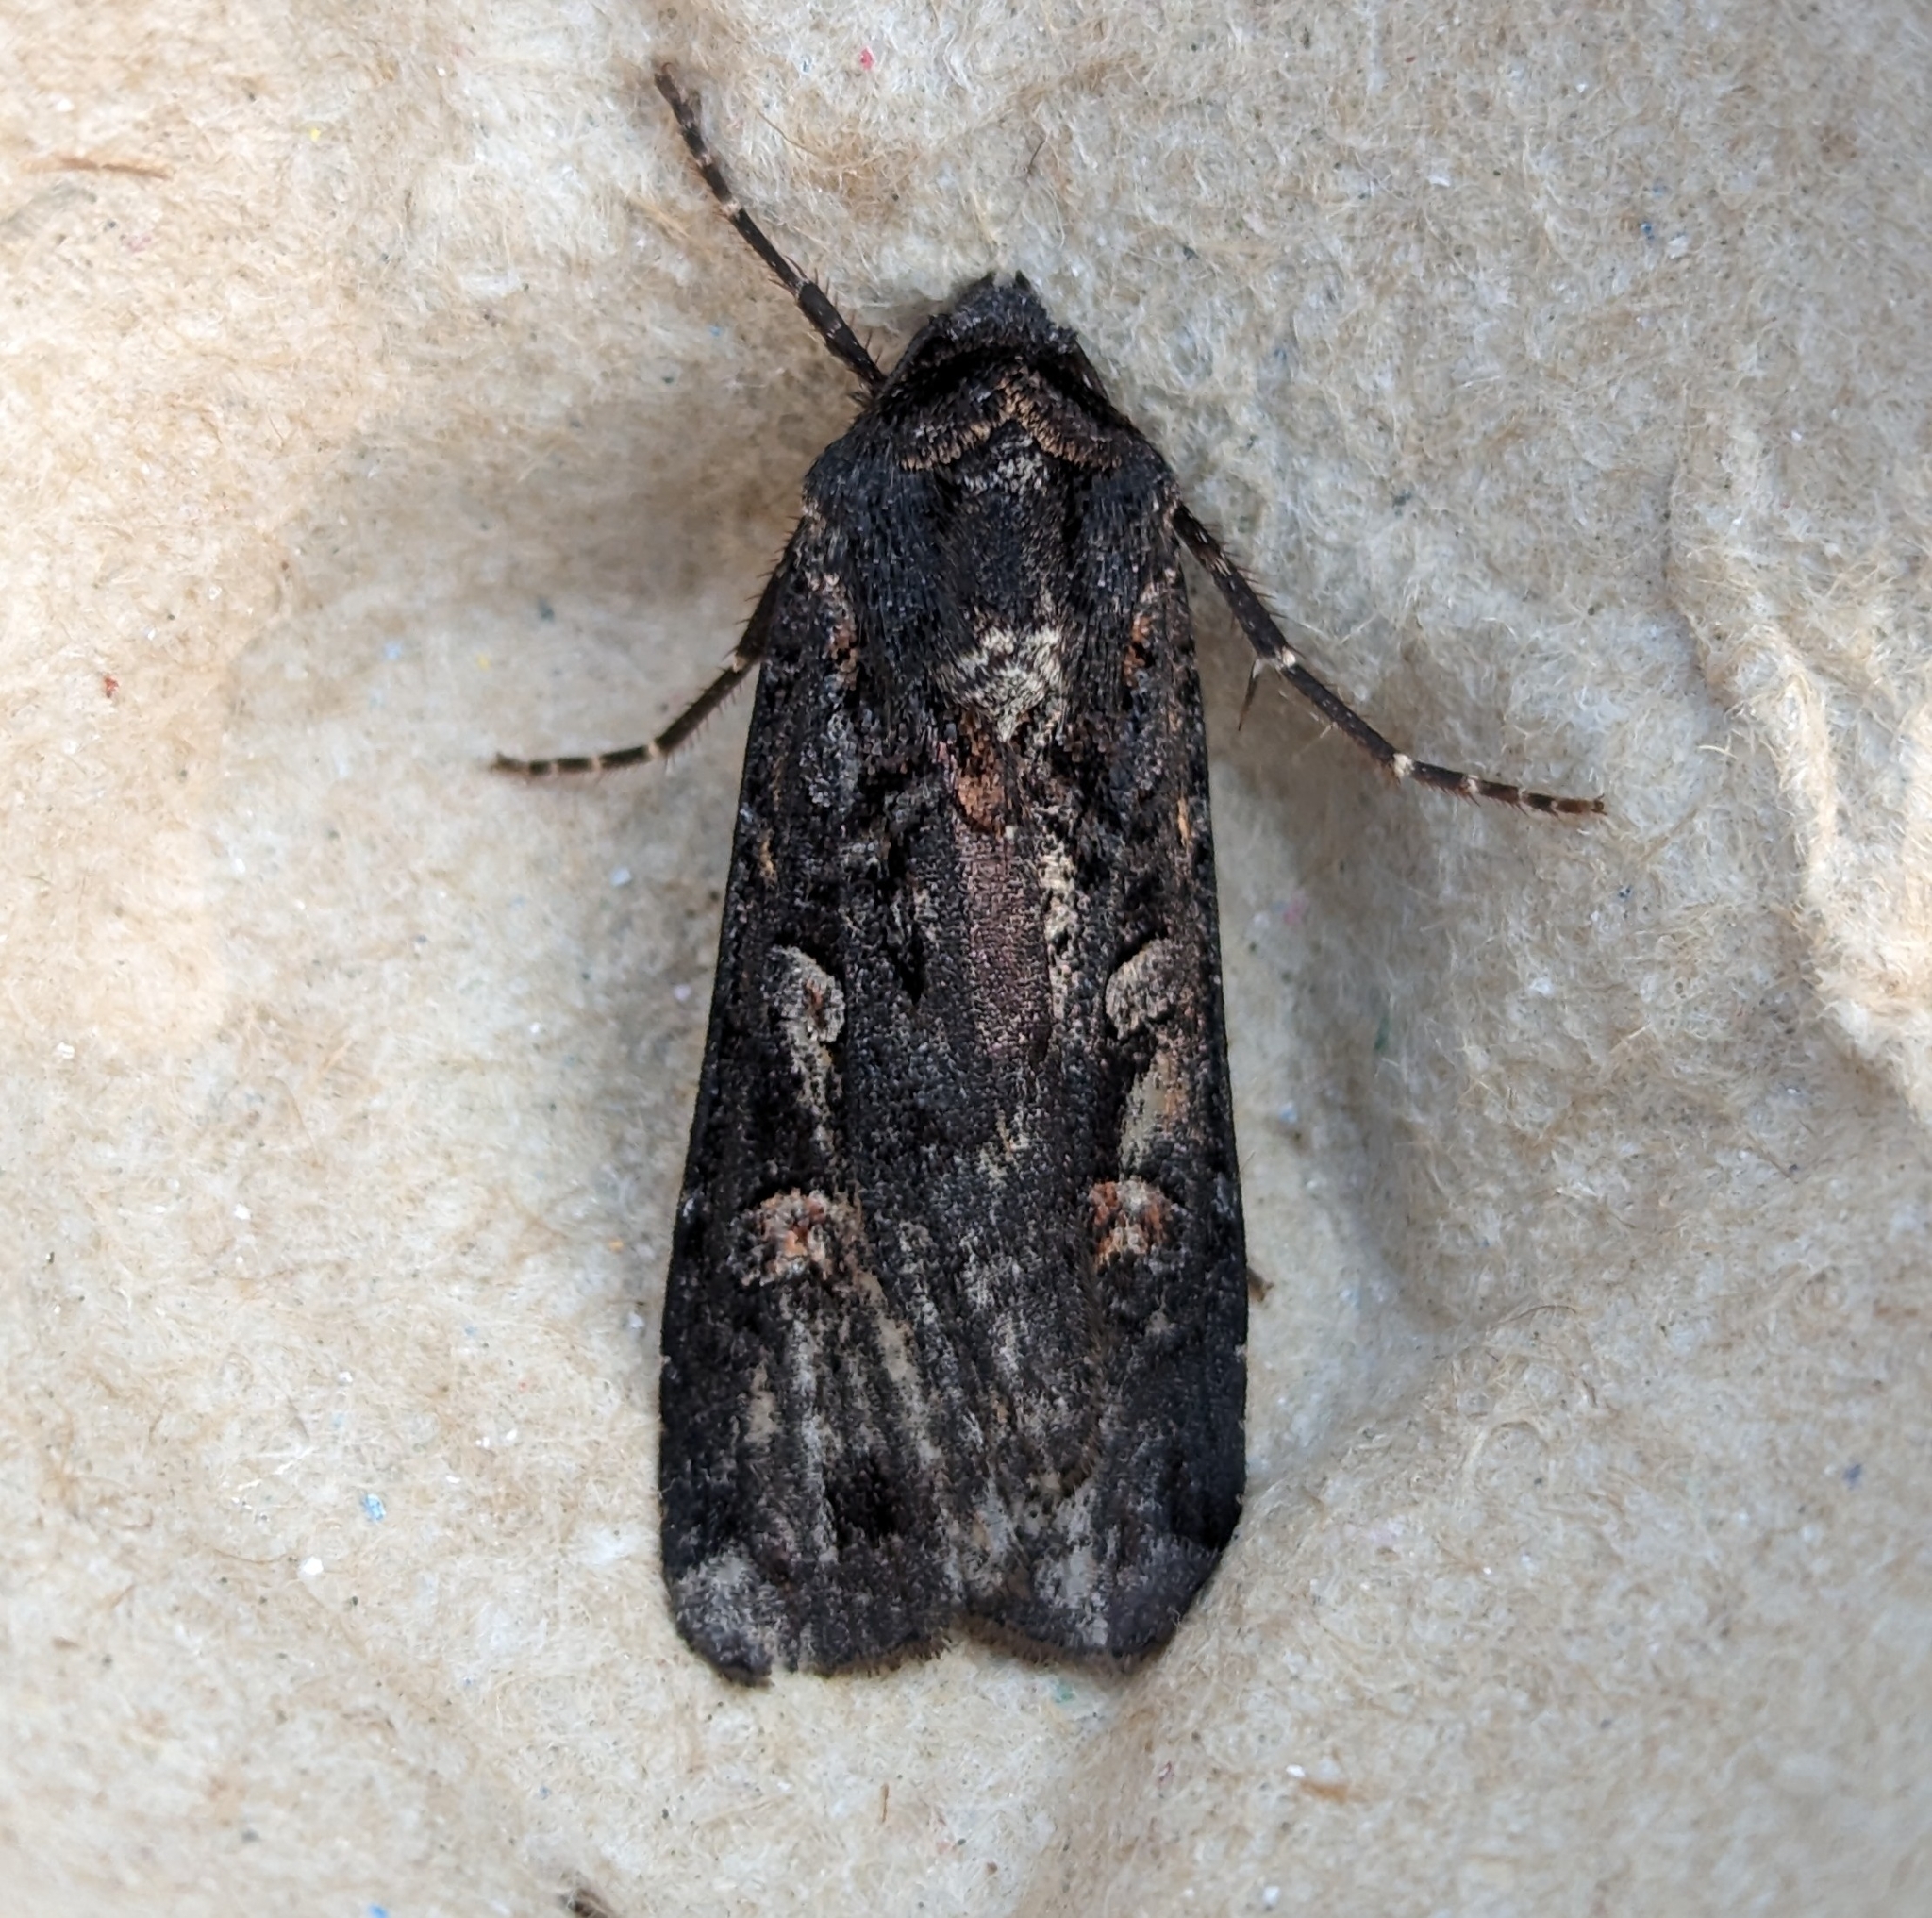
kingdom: Animalia
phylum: Arthropoda
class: Insecta
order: Lepidoptera
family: Noctuidae
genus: Actebia
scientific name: Actebia fennica
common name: Eversmann's rustic
